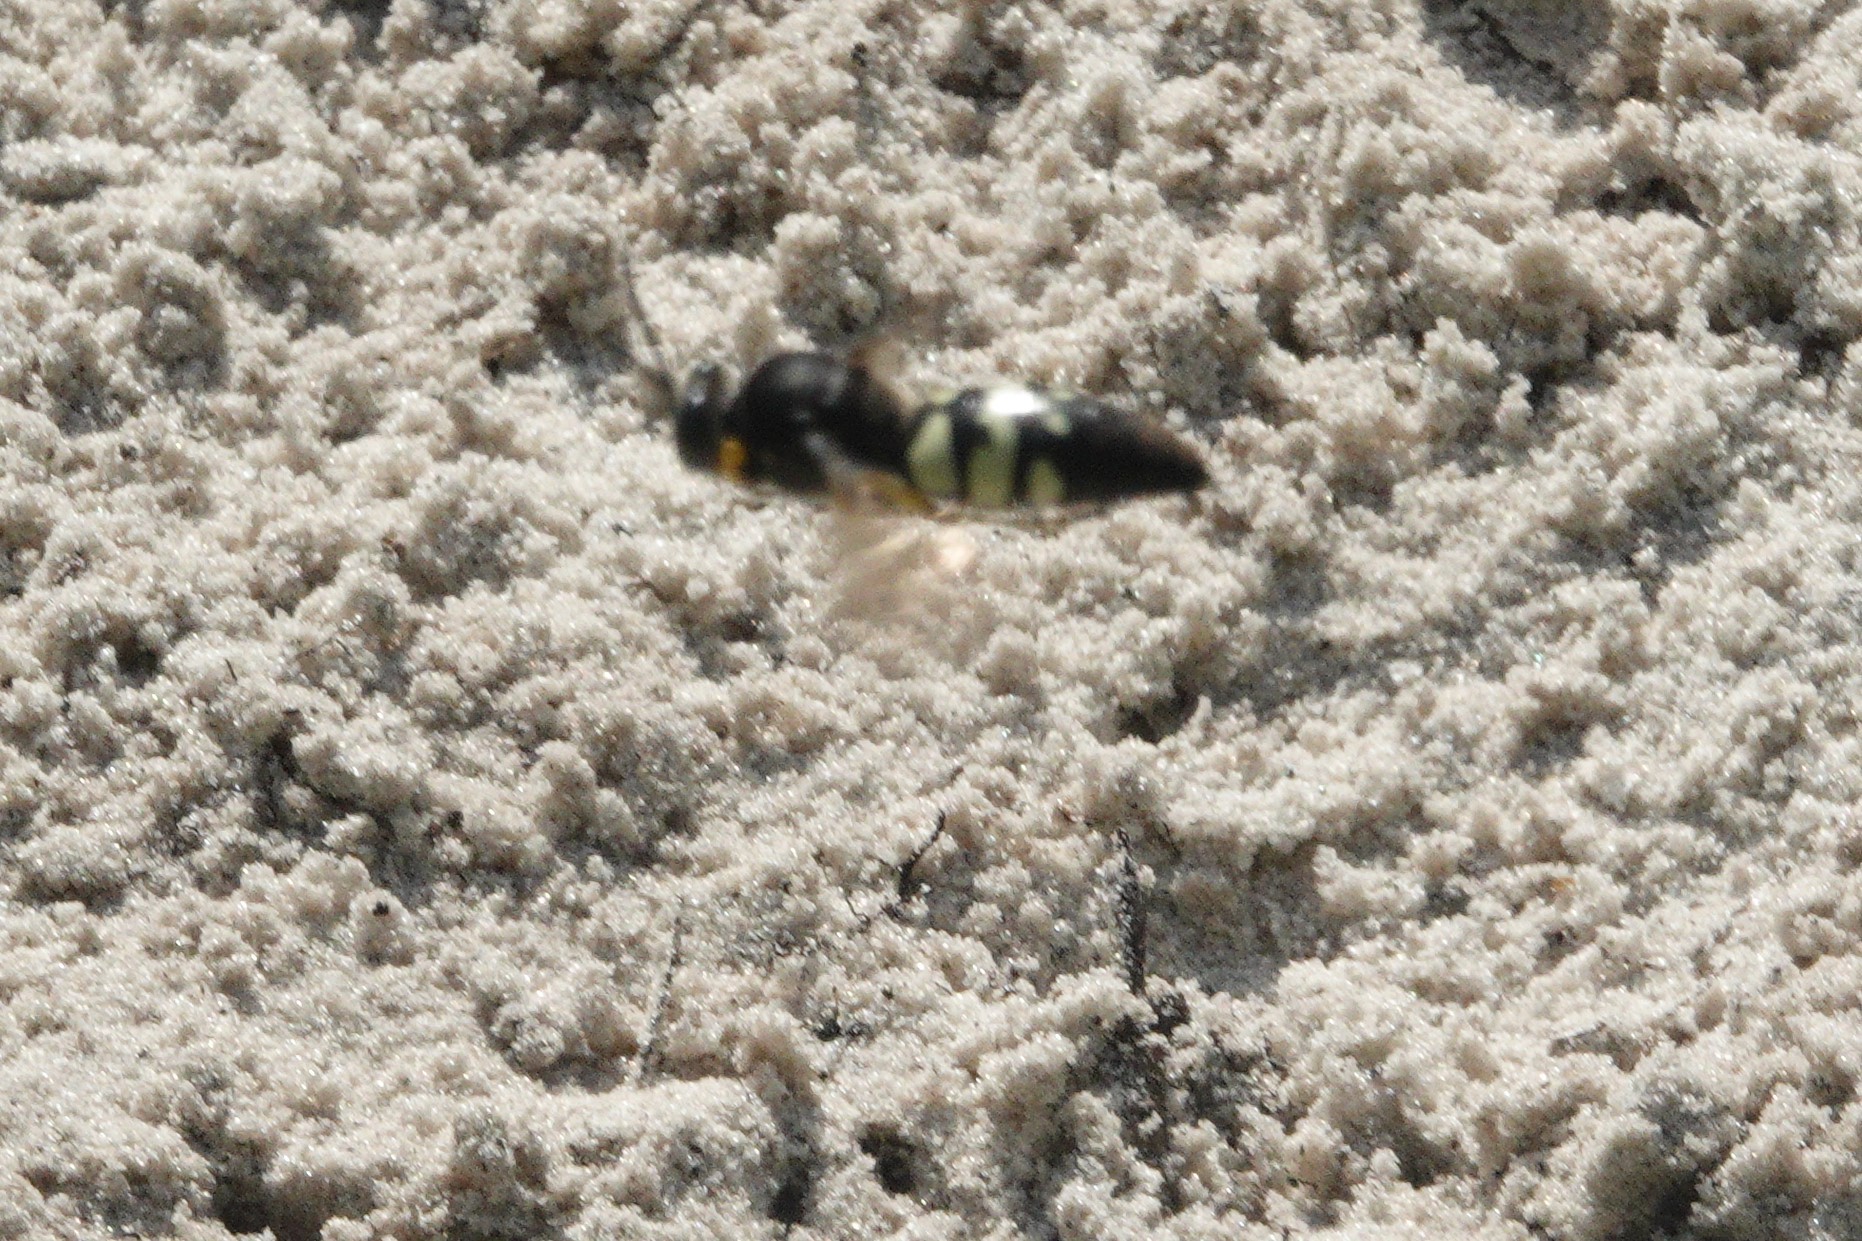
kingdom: Animalia
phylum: Arthropoda
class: Insecta
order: Hymenoptera
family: Crabronidae
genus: Stictia
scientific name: Stictia carolina
